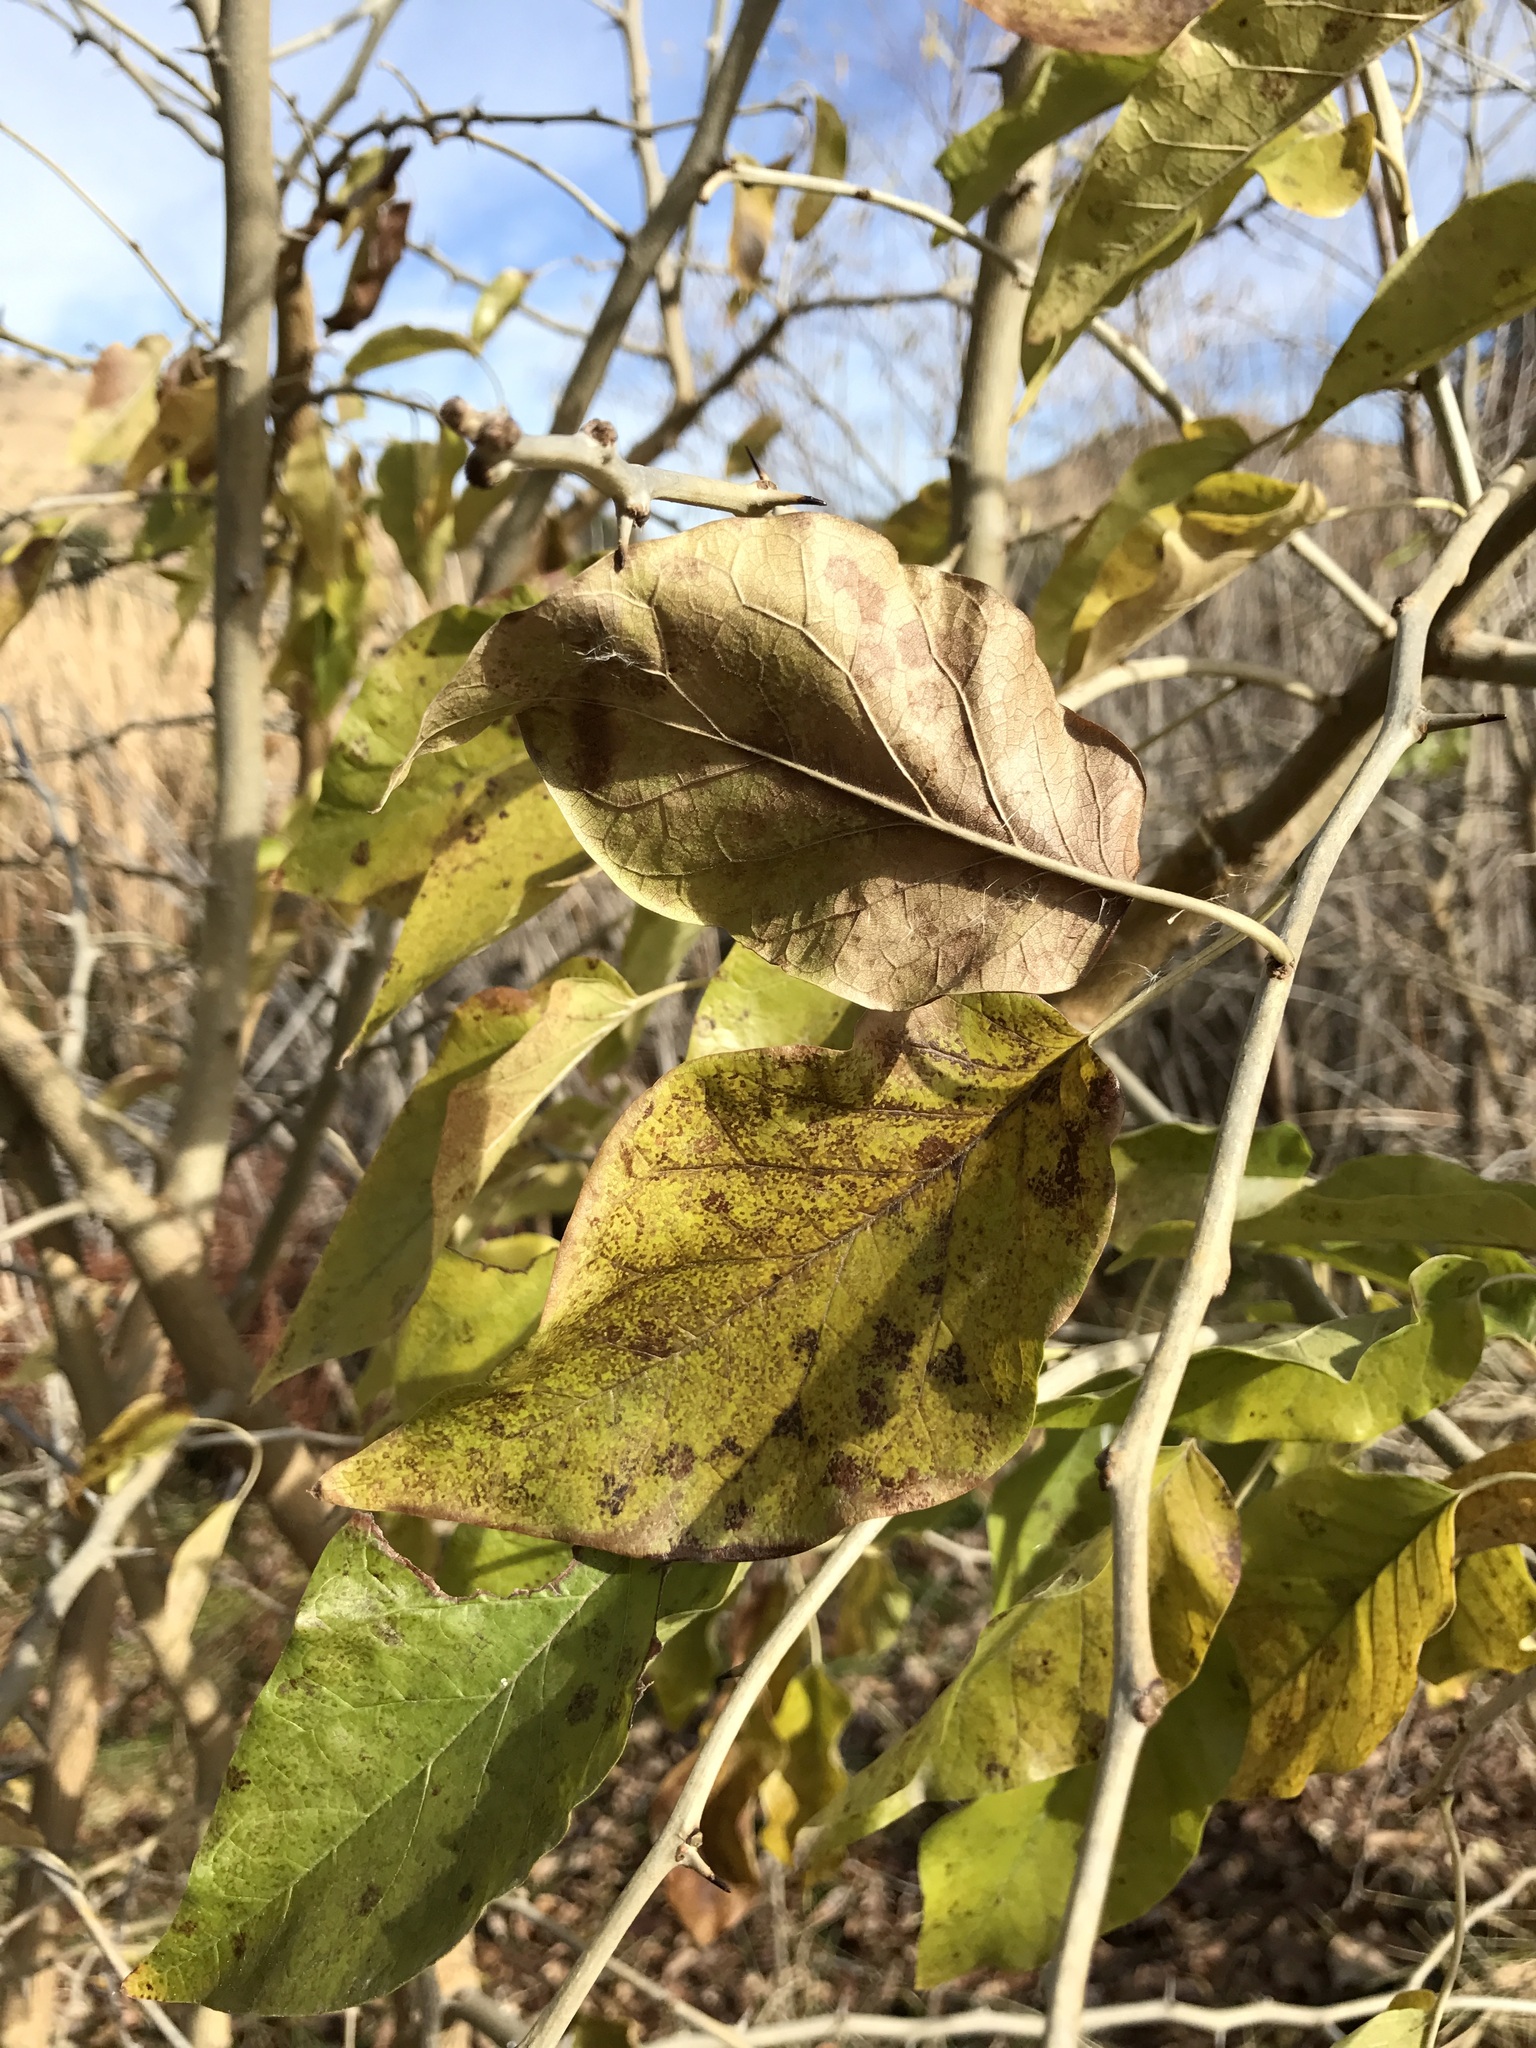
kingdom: Plantae
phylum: Tracheophyta
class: Magnoliopsida
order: Rosales
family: Moraceae
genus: Maclura
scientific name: Maclura pomifera
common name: Osage-orange
